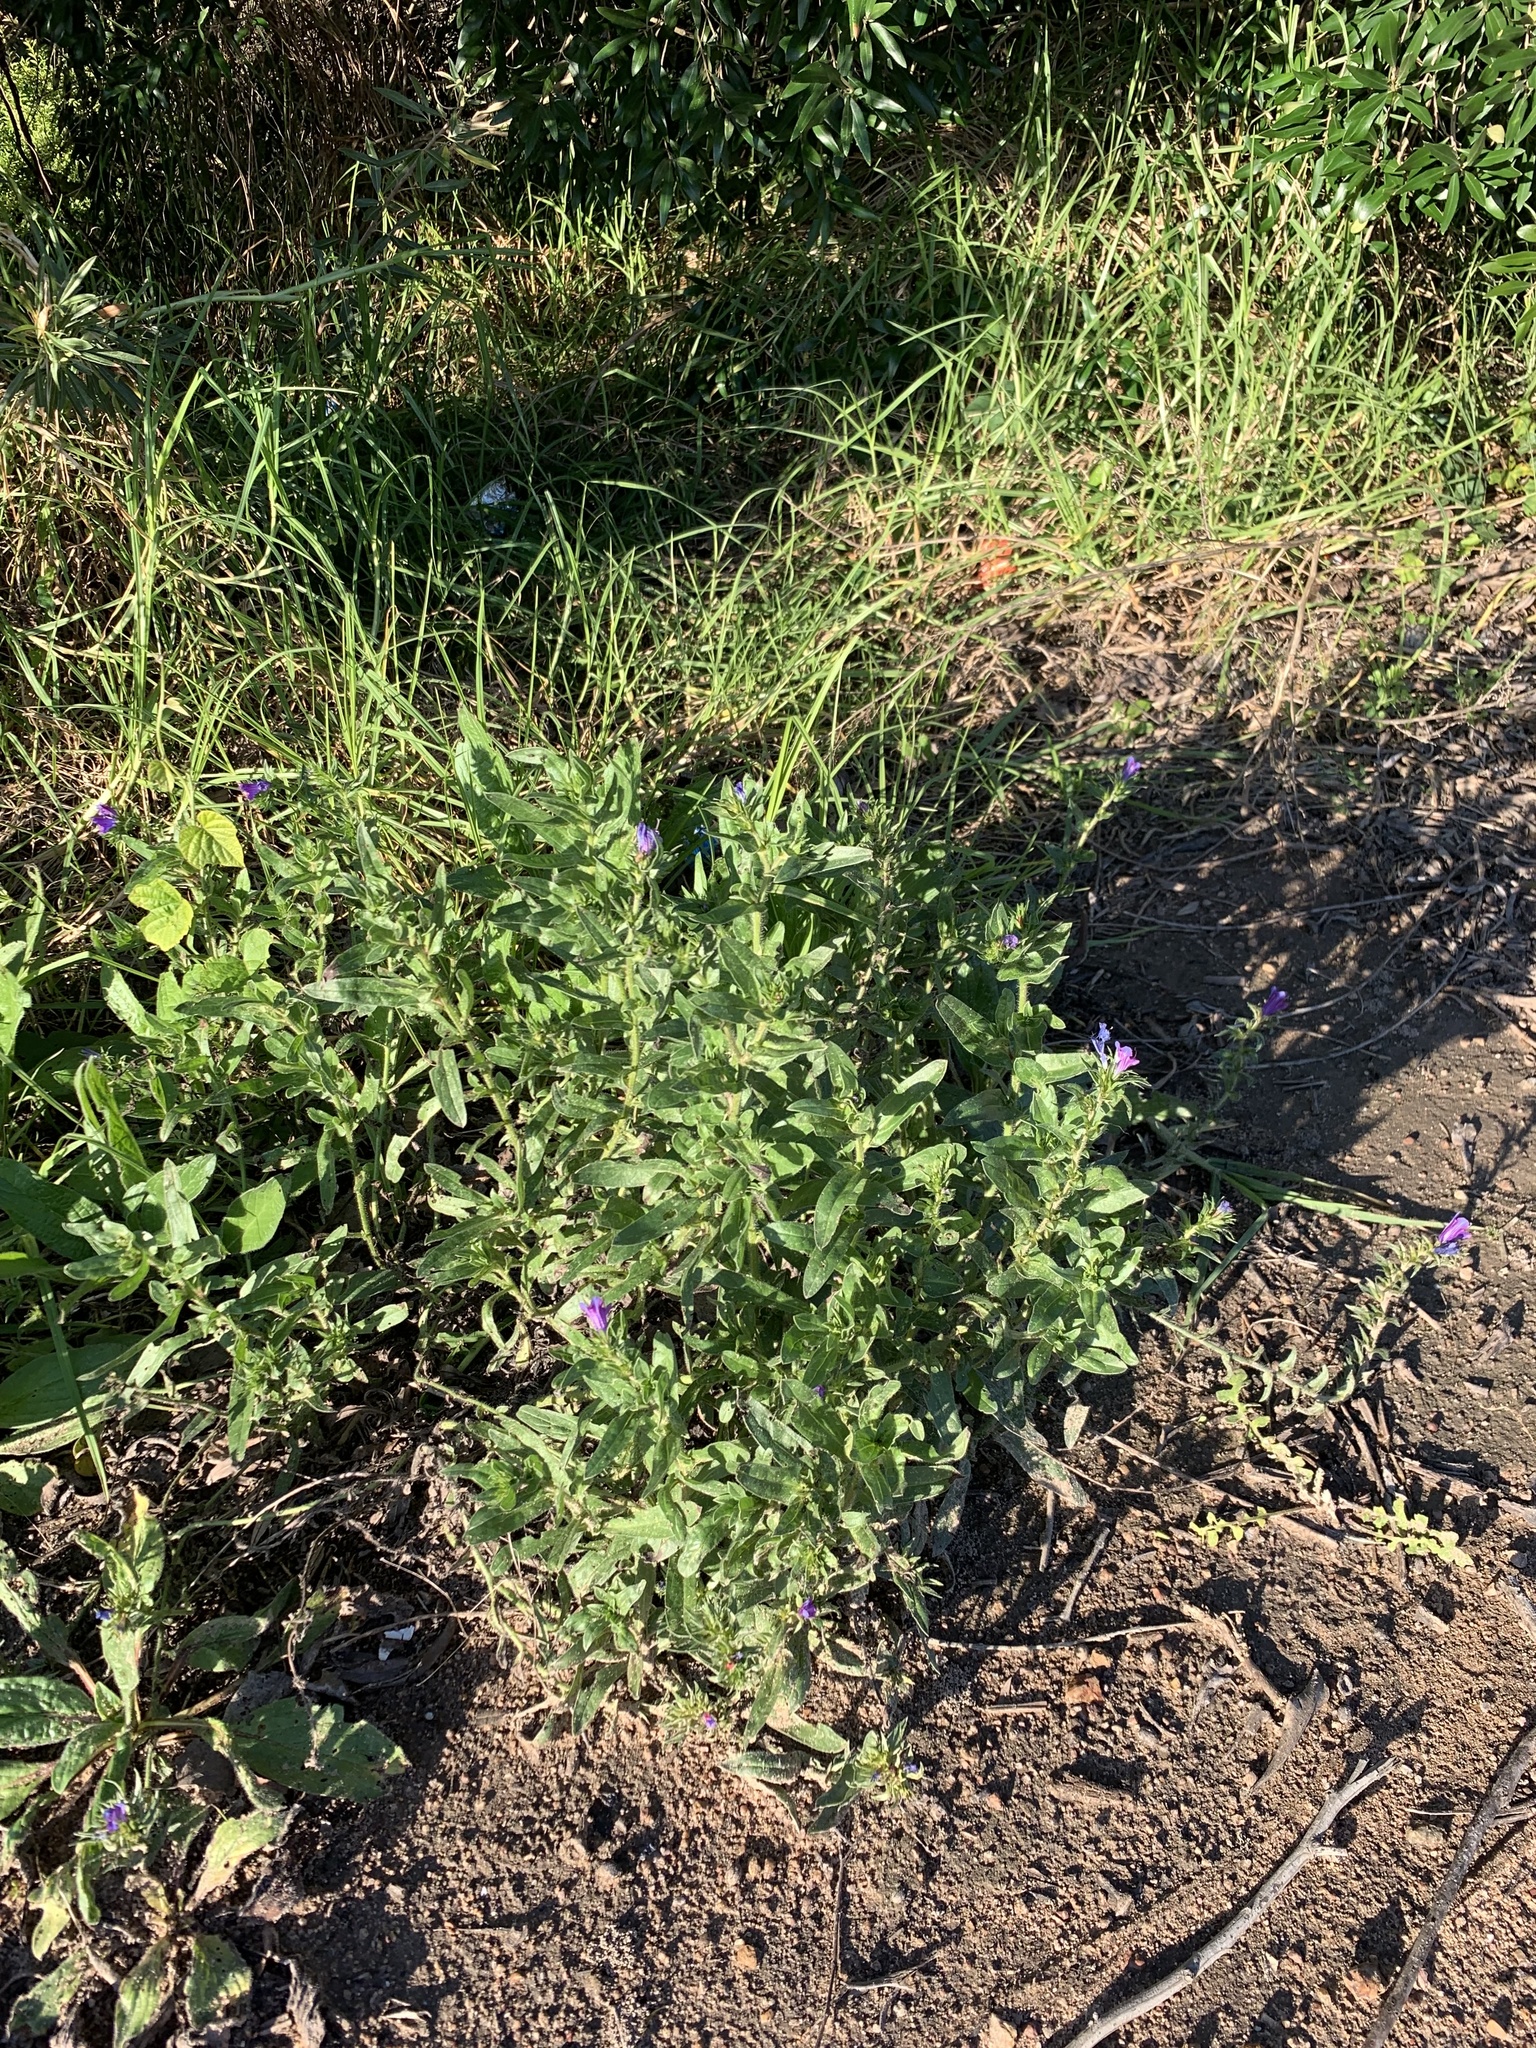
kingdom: Plantae
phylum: Tracheophyta
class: Magnoliopsida
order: Boraginales
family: Boraginaceae
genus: Echium
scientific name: Echium plantagineum
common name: Purple viper's-bugloss
